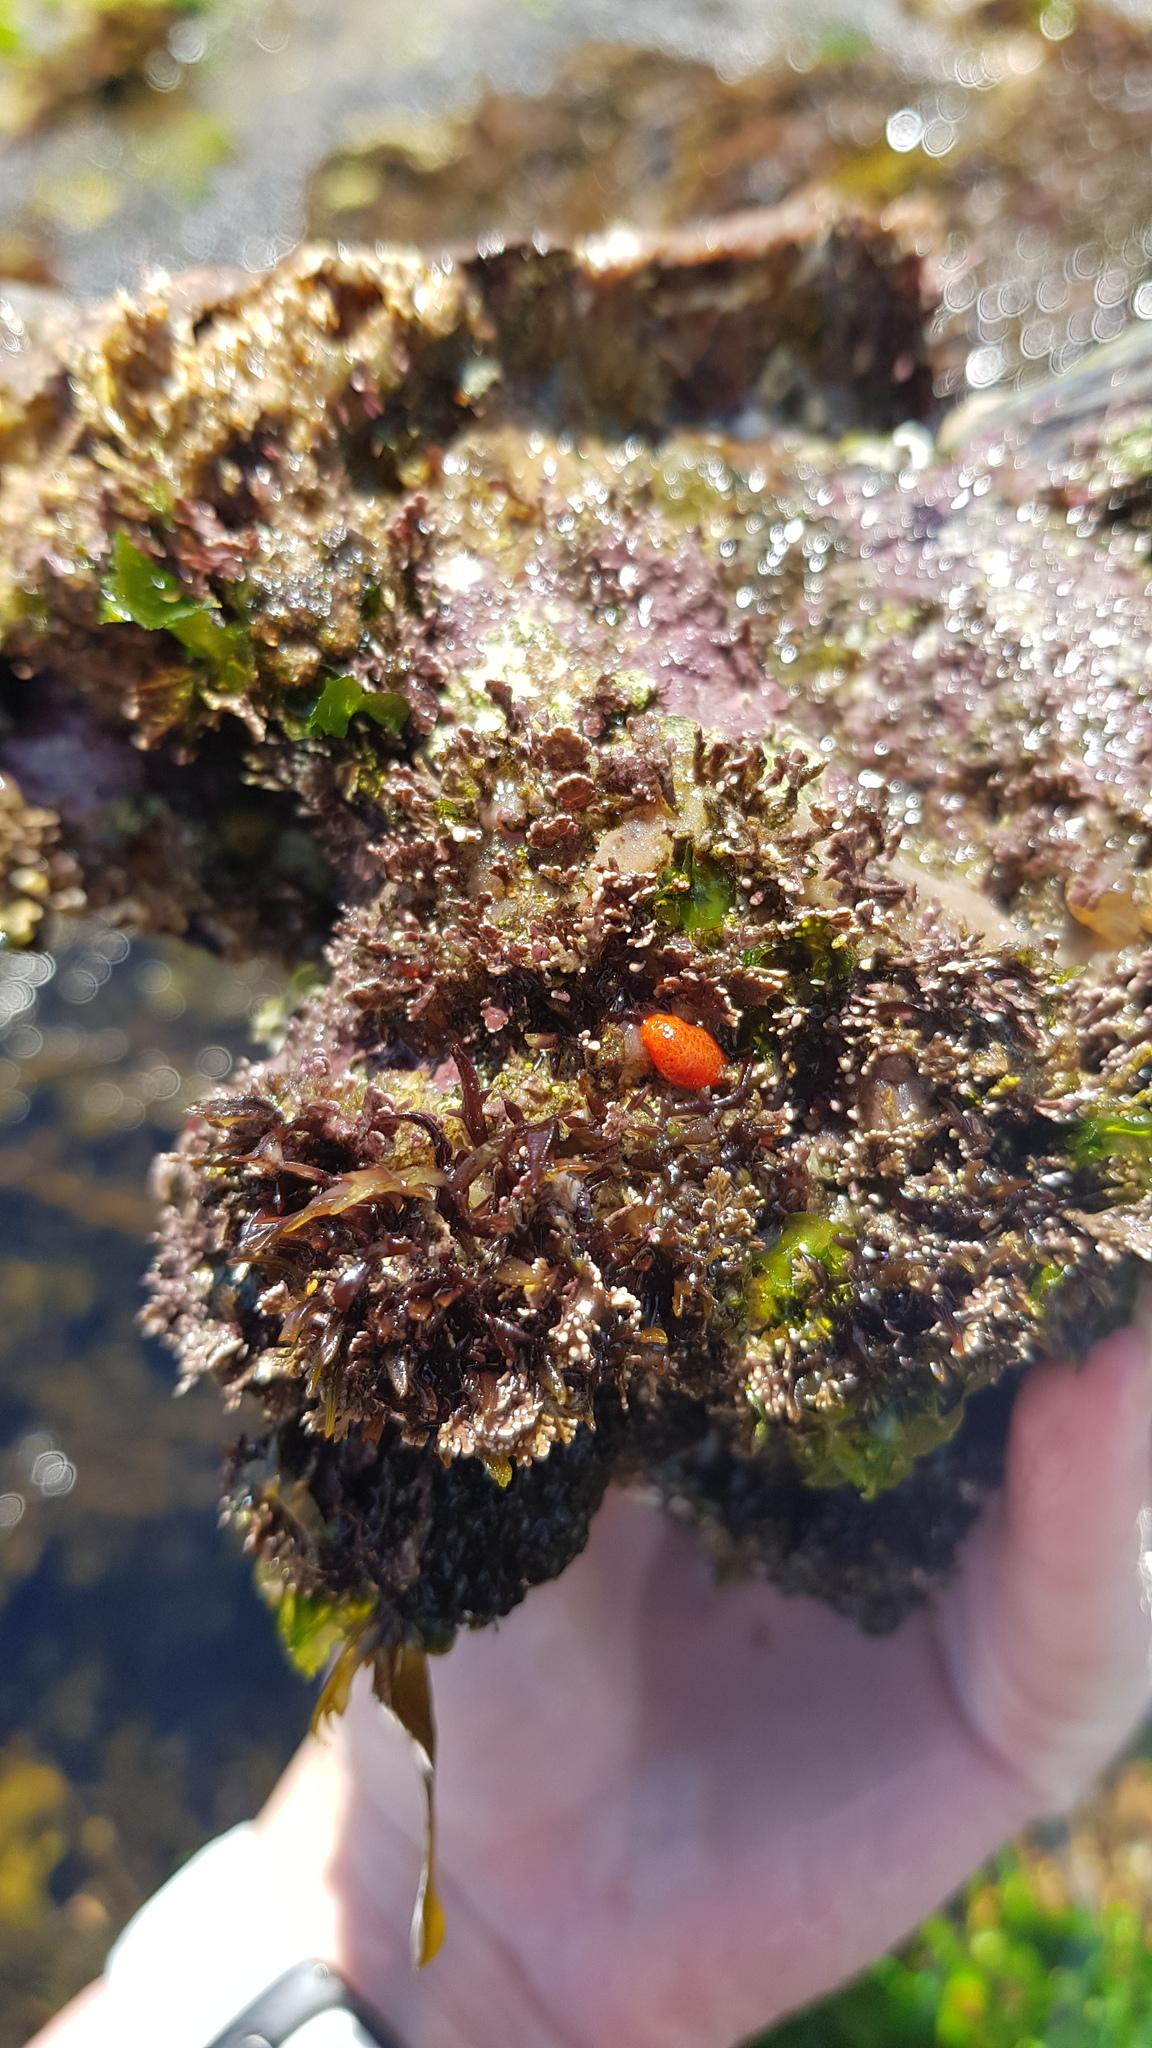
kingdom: Animalia
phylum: Mollusca
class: Gastropoda
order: Nudibranchia
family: Discodorididae
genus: Rostanga
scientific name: Rostanga arbutus
